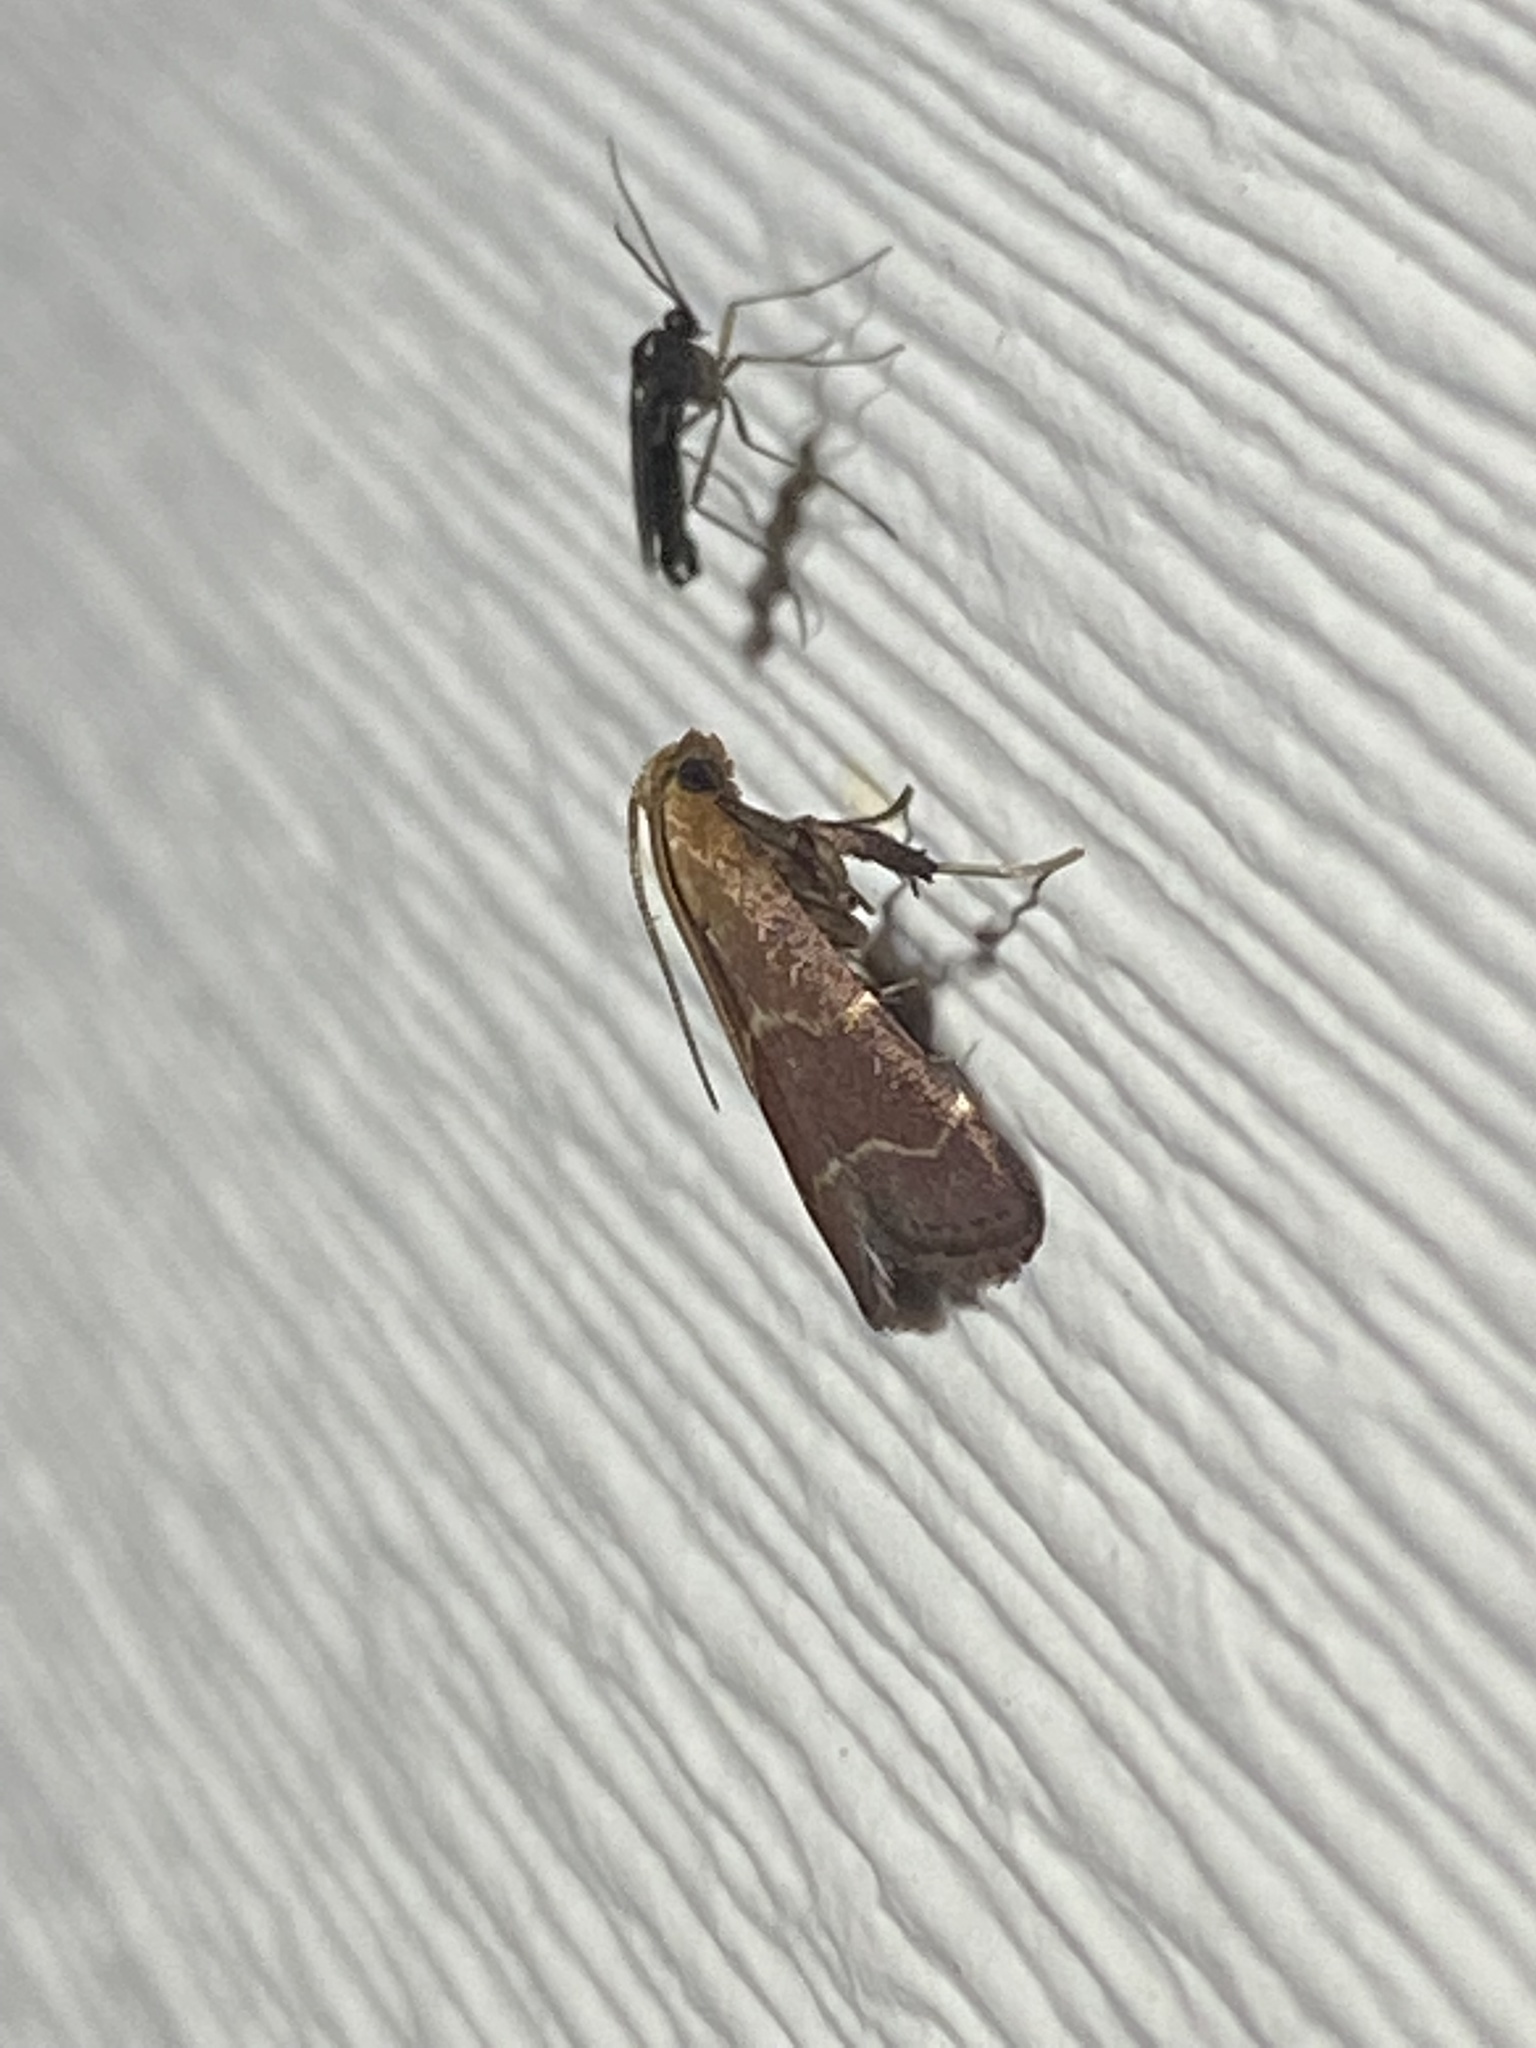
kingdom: Animalia
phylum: Arthropoda
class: Insecta
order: Lepidoptera
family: Pyralidae
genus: Arta
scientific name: Arta statalis
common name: Posturing arta moth
